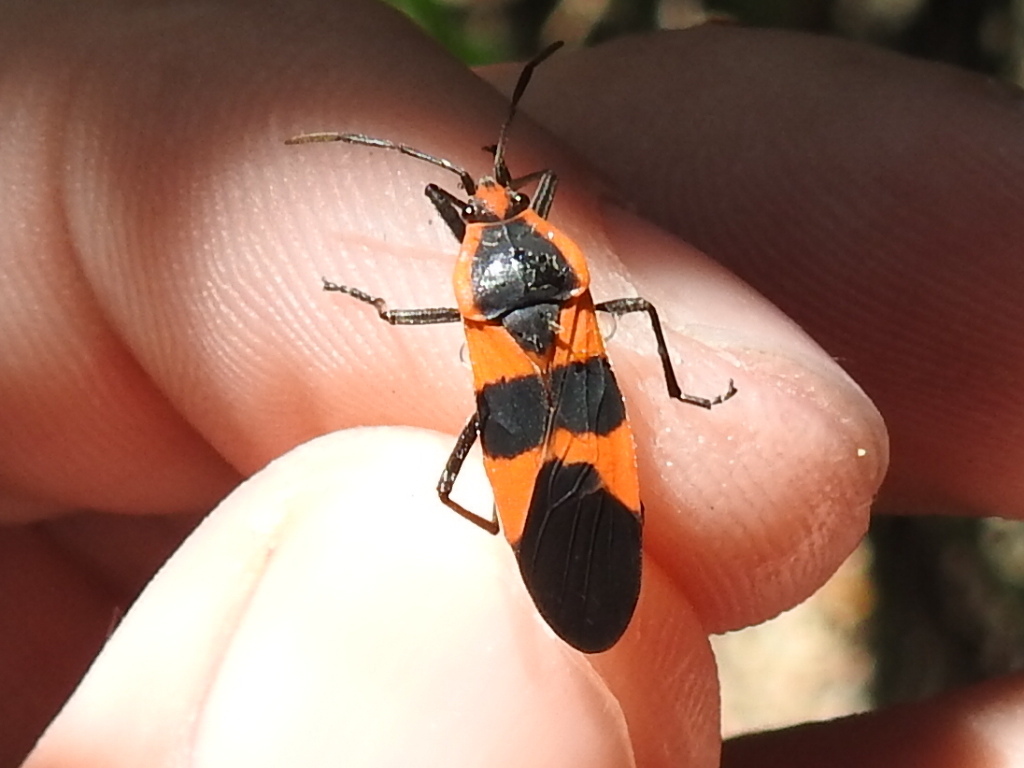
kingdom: Animalia
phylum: Arthropoda
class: Insecta
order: Hemiptera
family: Lygaeidae
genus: Oncopeltus
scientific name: Oncopeltus fasciatus
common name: Large milkweed bug
